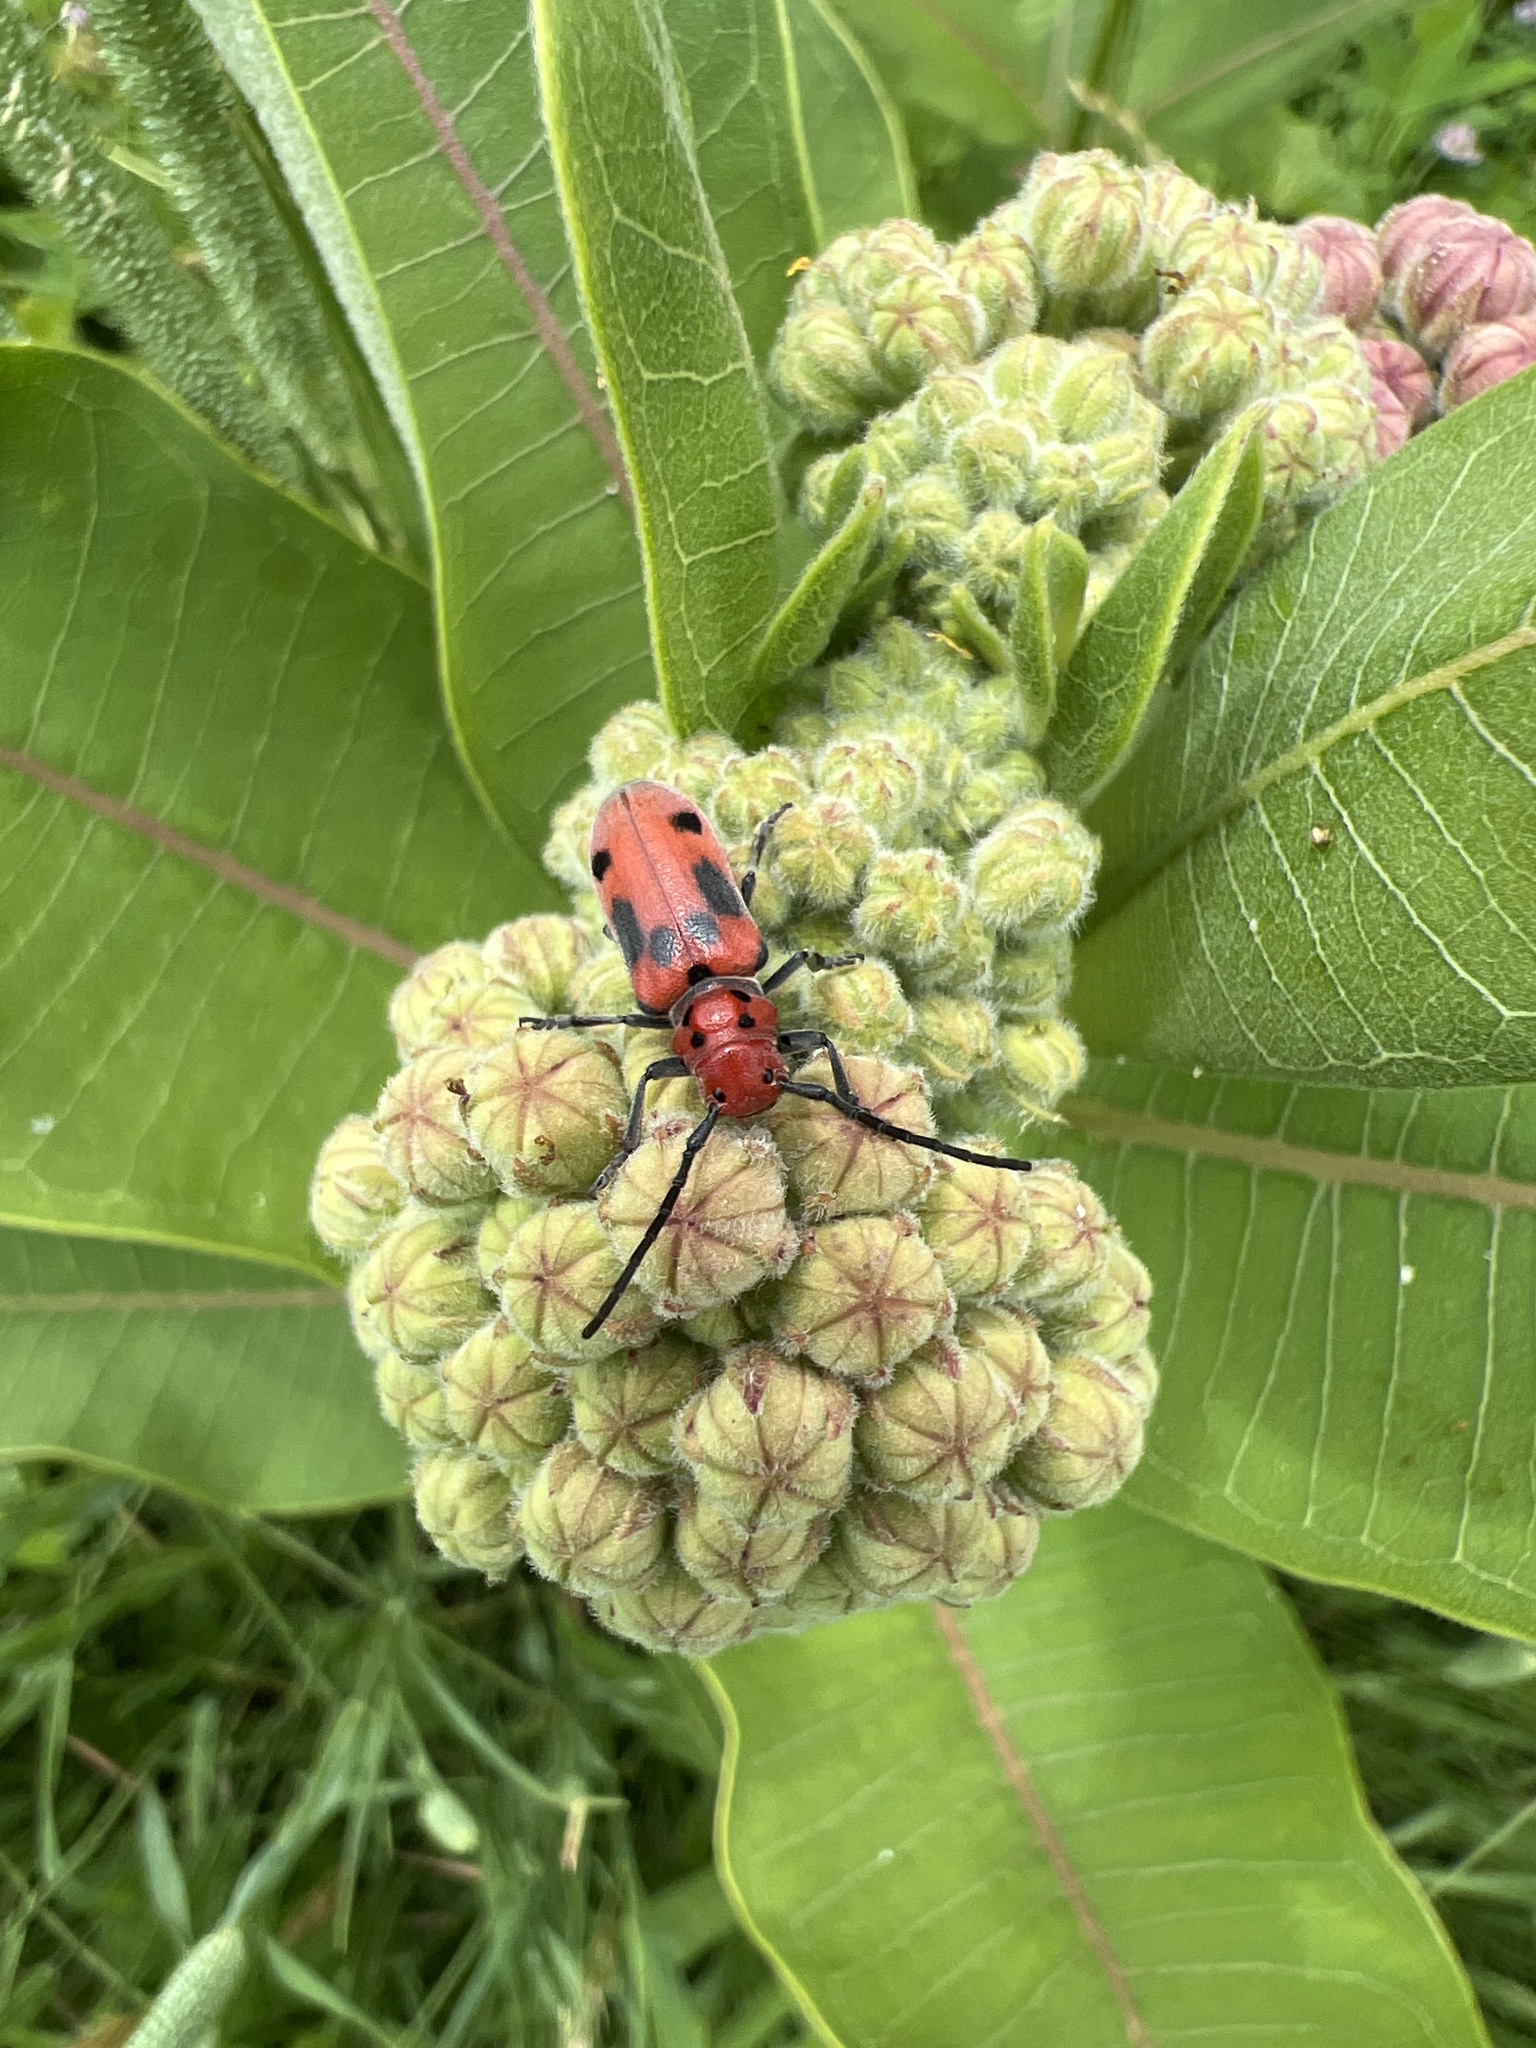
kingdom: Animalia
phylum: Arthropoda
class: Insecta
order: Coleoptera
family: Cerambycidae
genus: Tetraopes
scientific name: Tetraopes tetrophthalmus
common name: Red milkweed beetle
